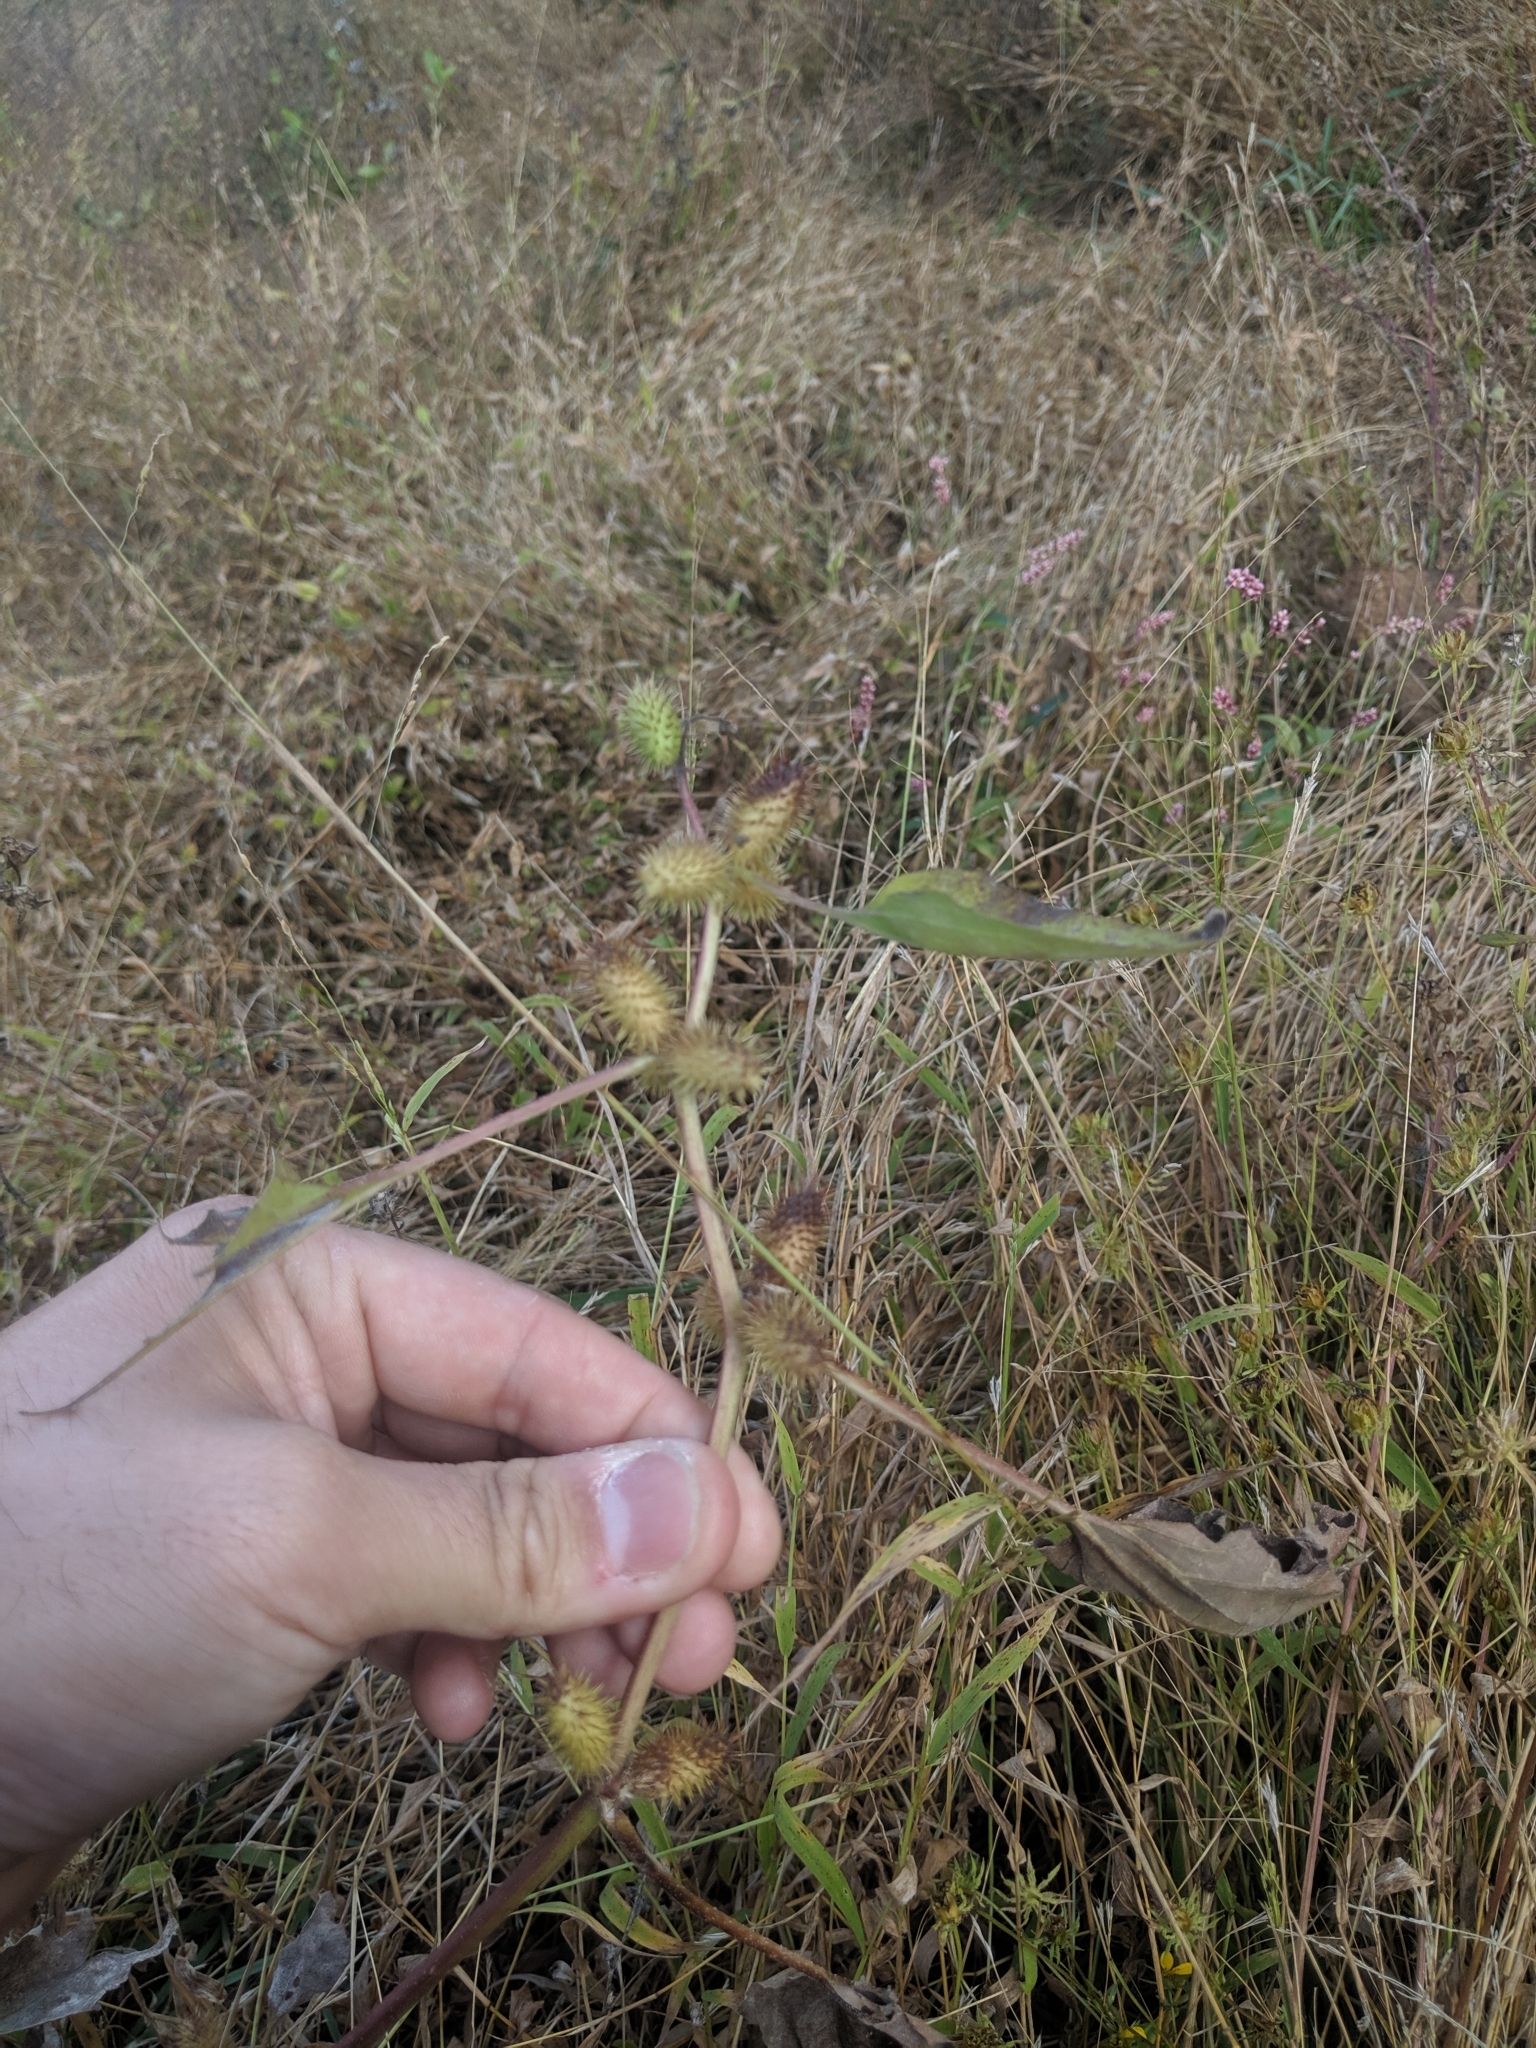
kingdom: Plantae
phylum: Tracheophyta
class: Magnoliopsida
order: Asterales
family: Asteraceae
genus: Xanthium
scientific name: Xanthium strumarium
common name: Rough cocklebur
